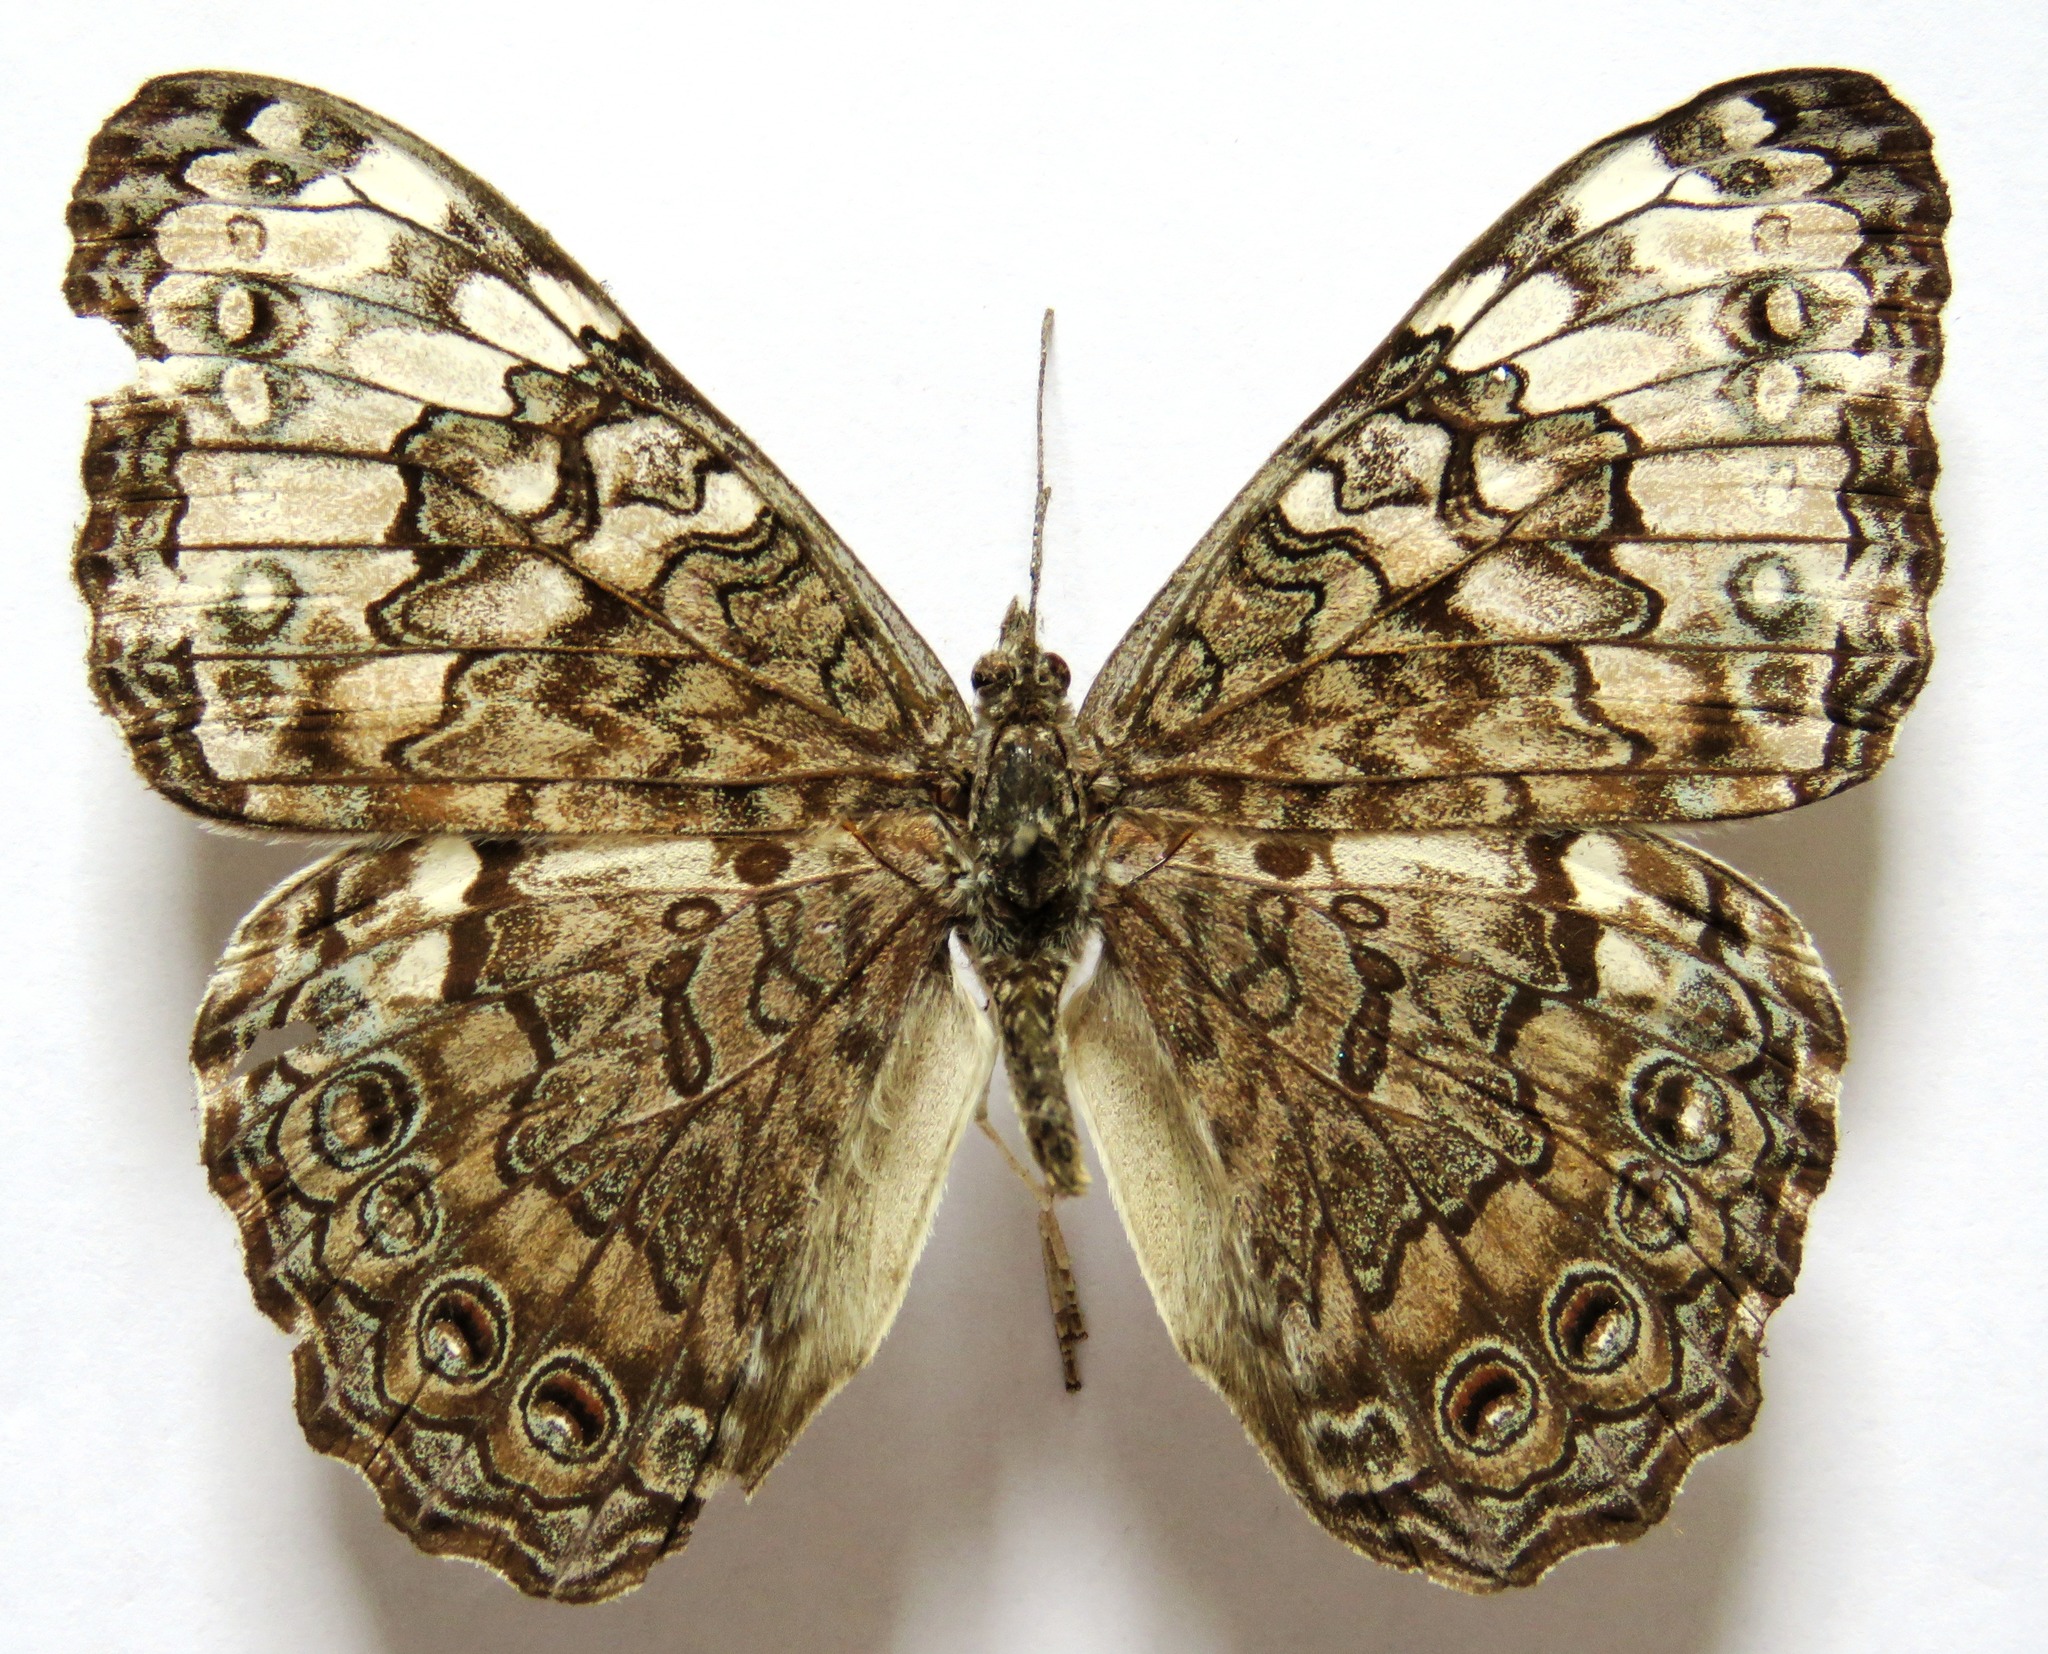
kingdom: Animalia
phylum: Arthropoda
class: Insecta
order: Lepidoptera
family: Nymphalidae
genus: Hamadryas
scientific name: Hamadryas glauconome
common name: Glaucous cracker
